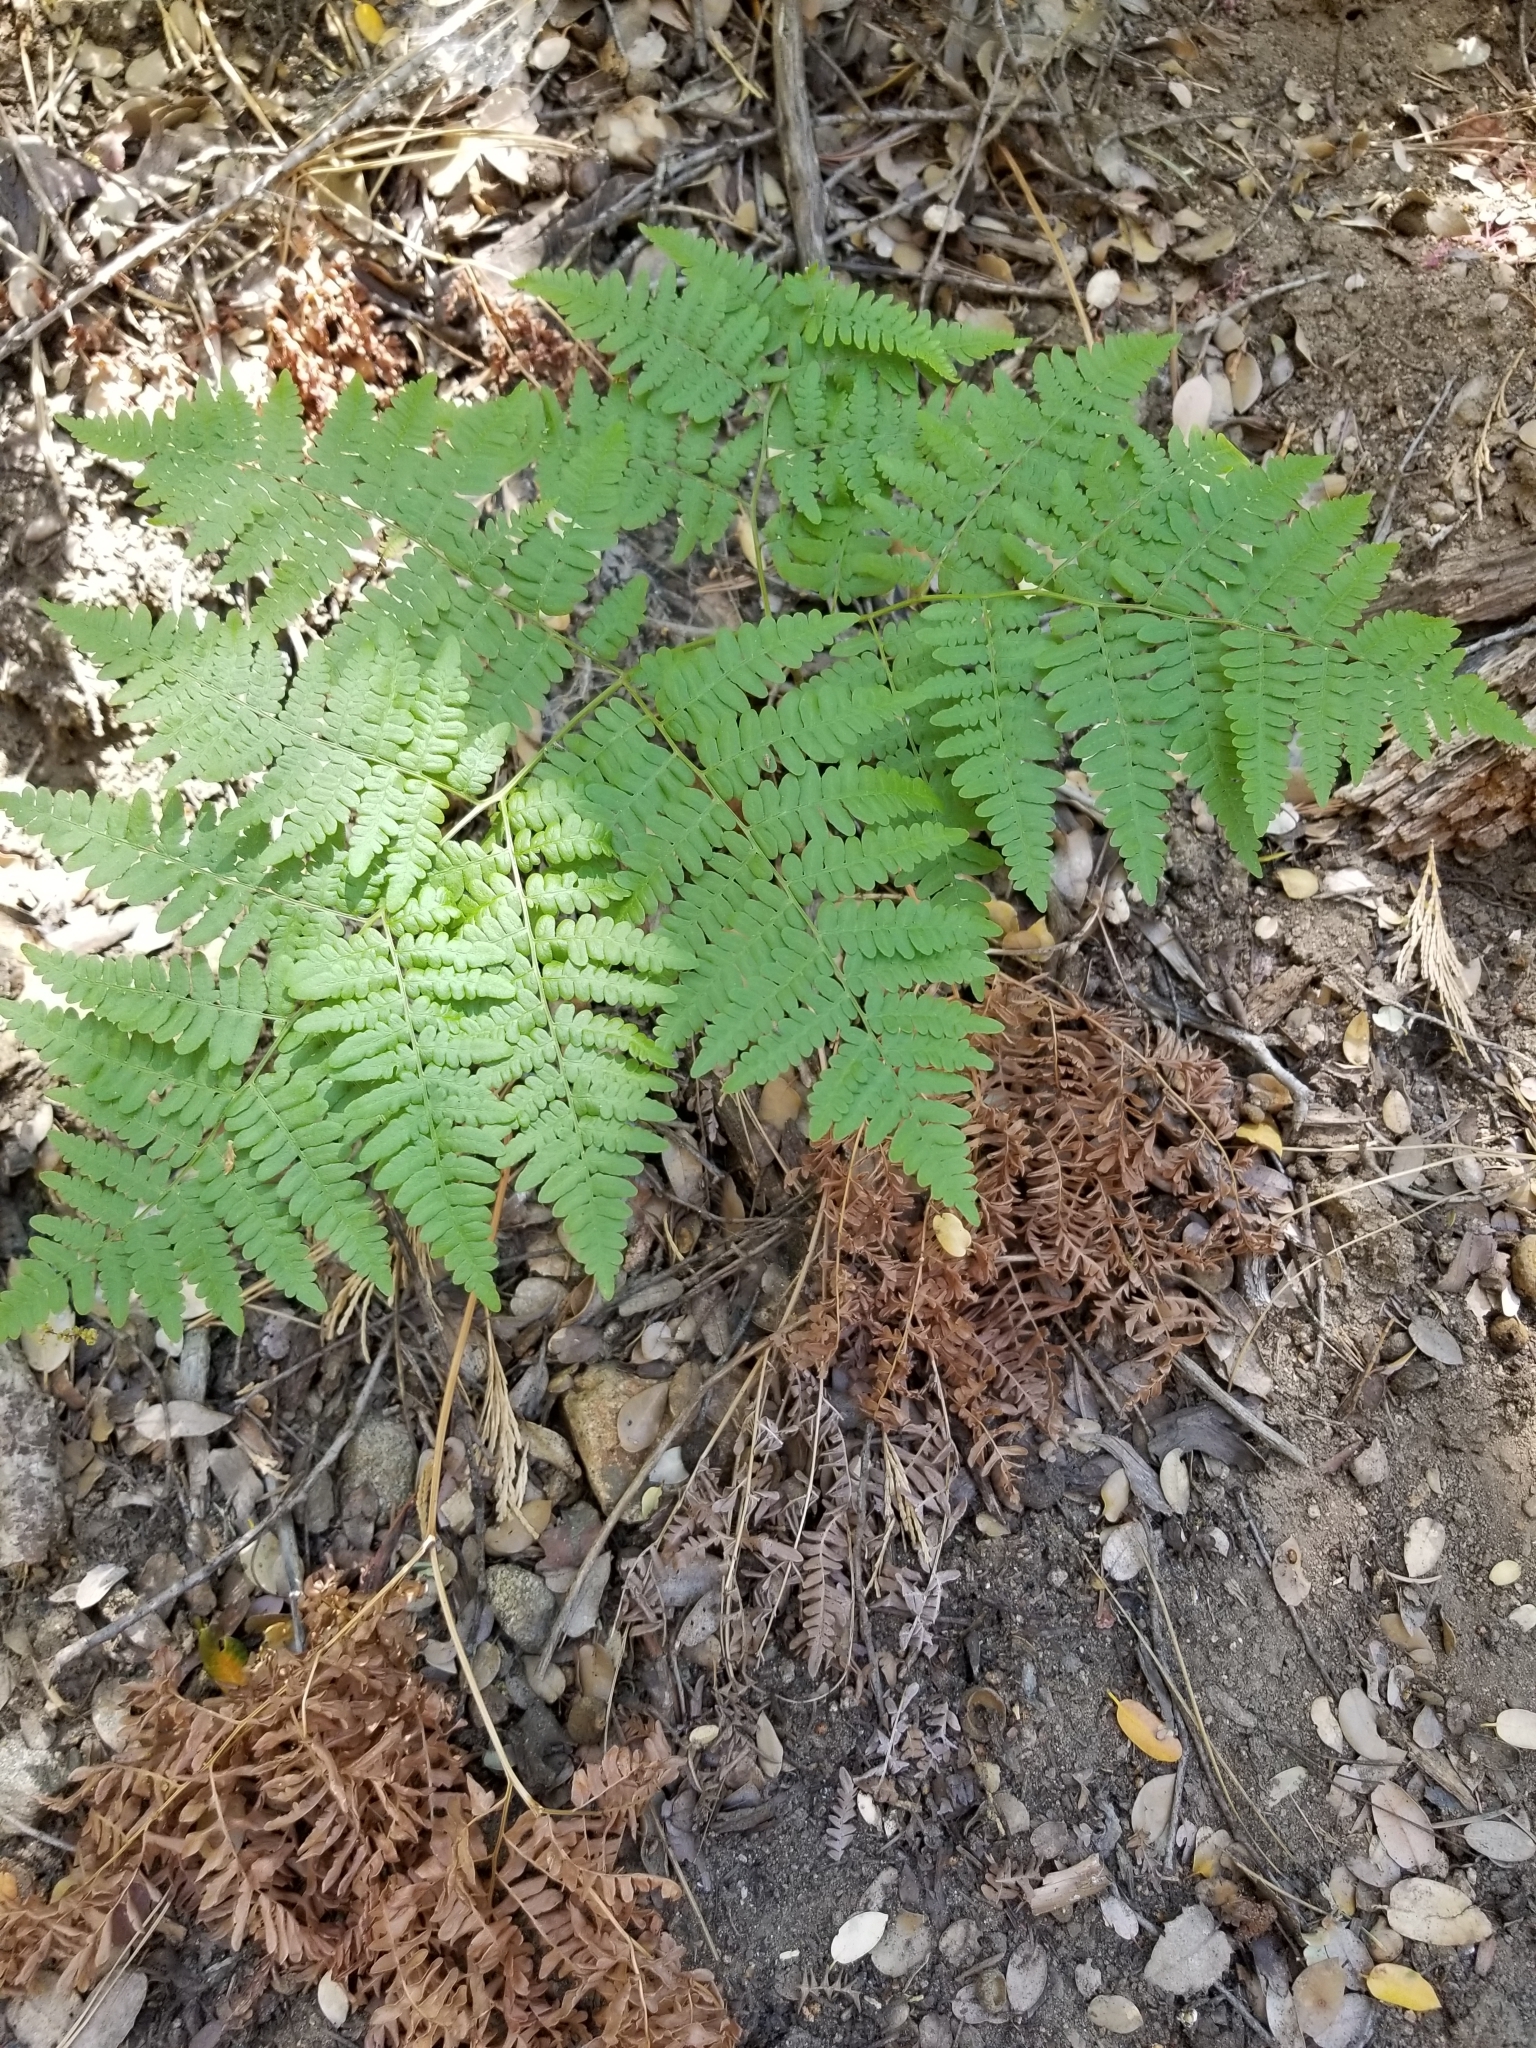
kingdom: Plantae
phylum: Tracheophyta
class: Polypodiopsida
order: Polypodiales
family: Dennstaedtiaceae
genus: Pteridium
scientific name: Pteridium aquilinum
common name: Bracken
